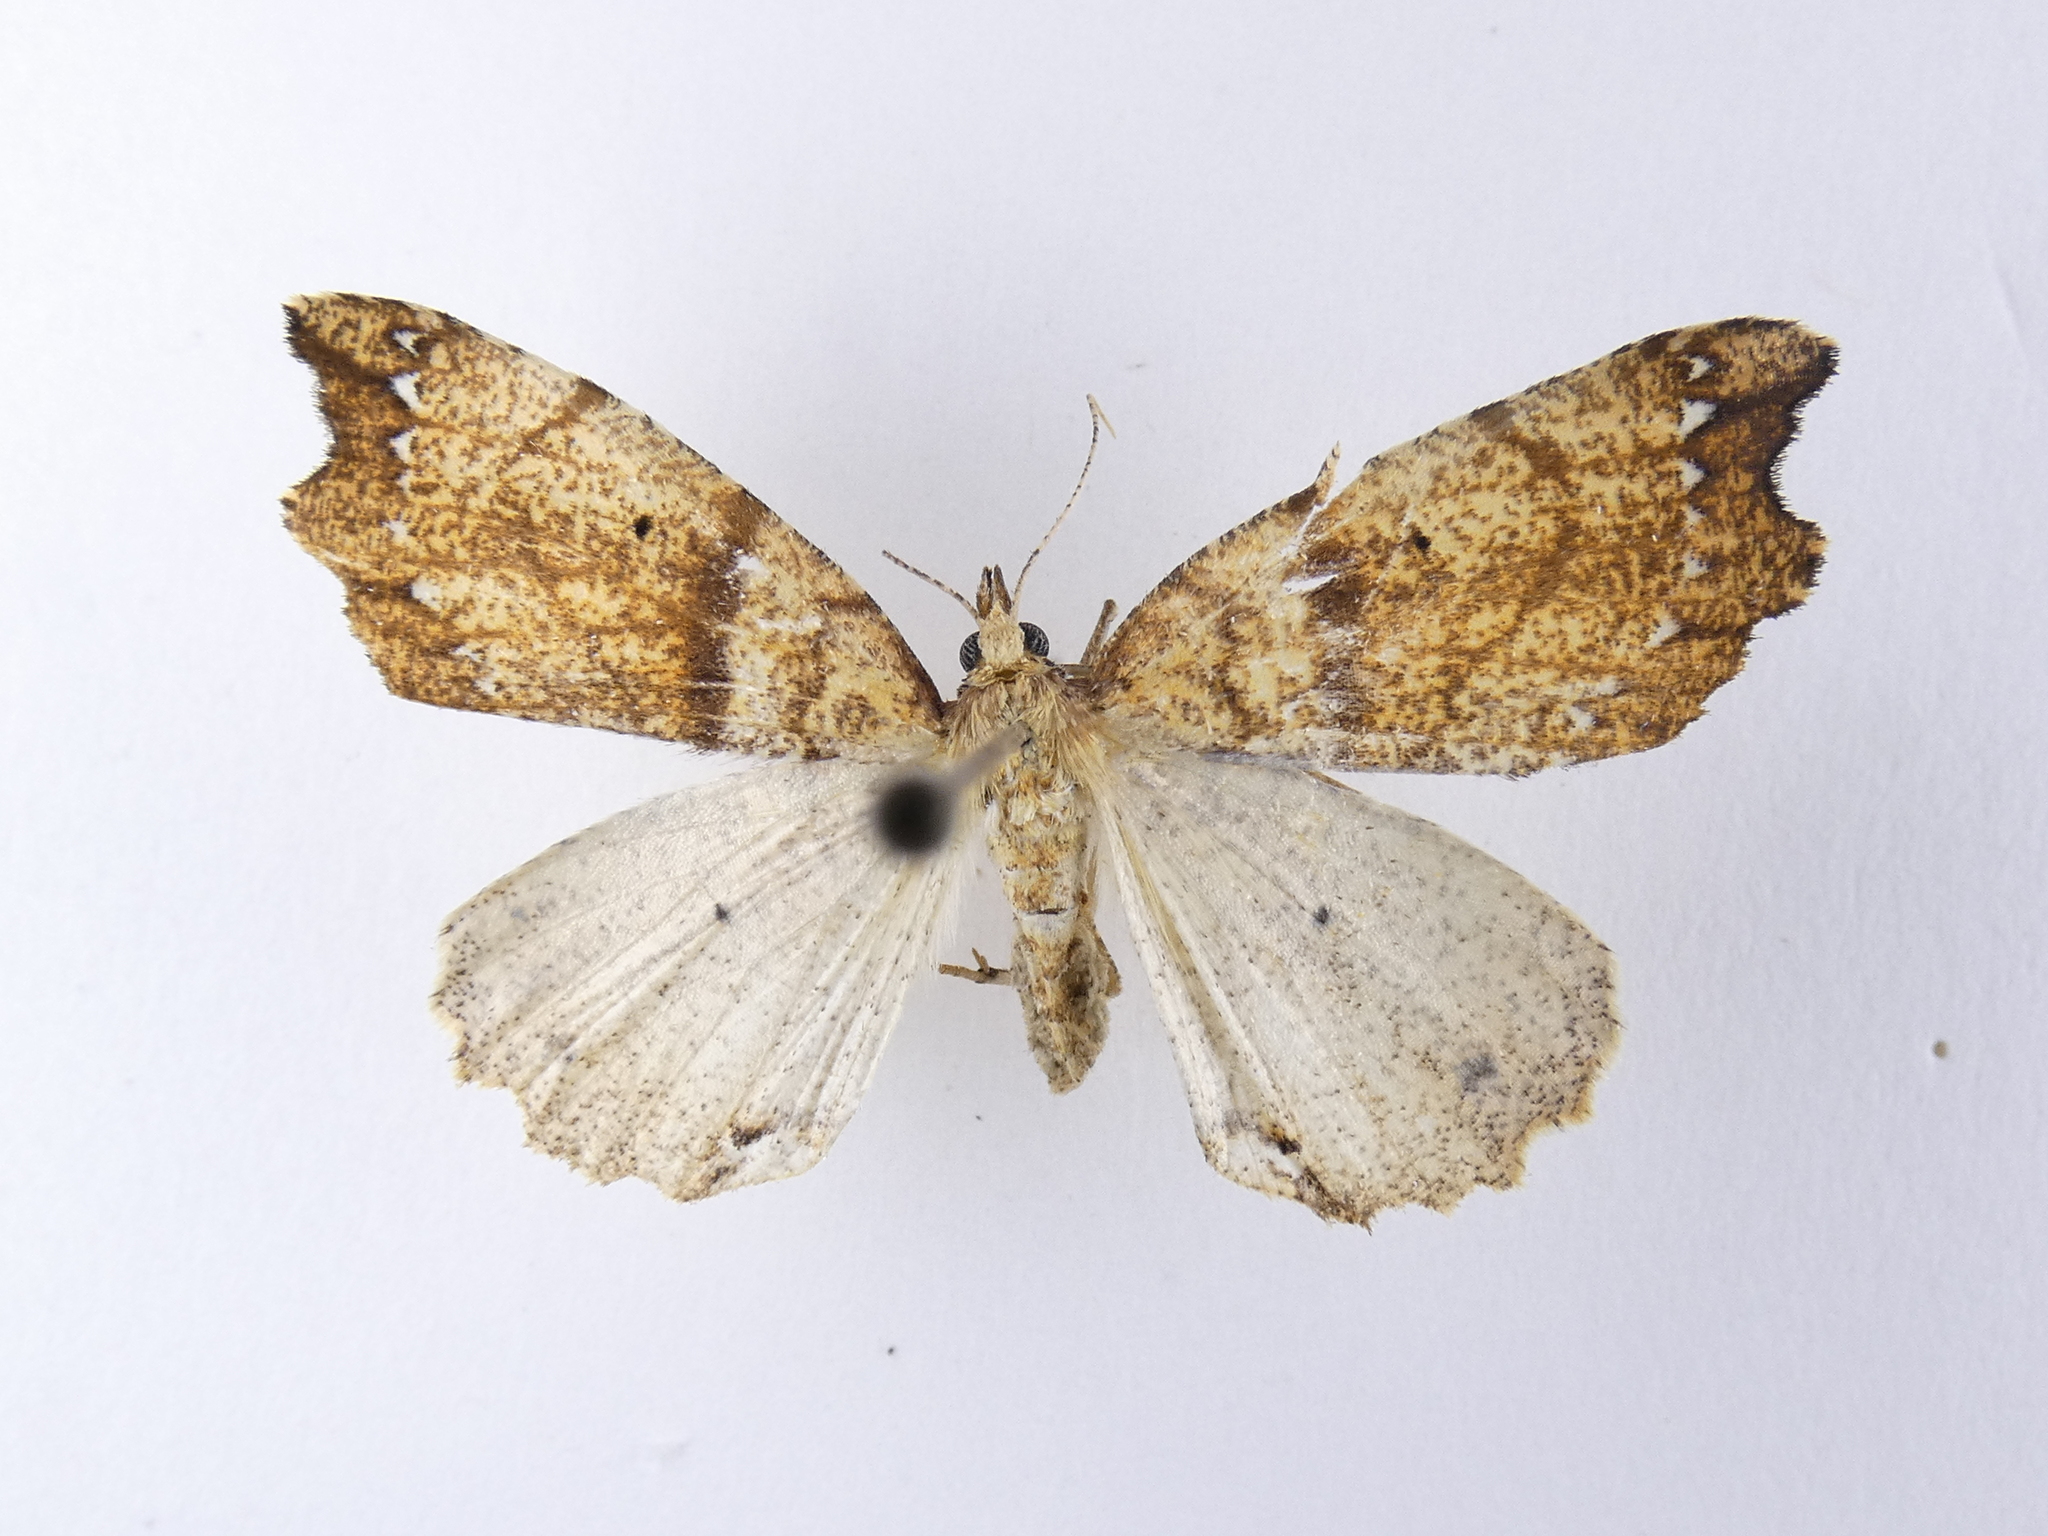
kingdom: Animalia
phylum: Arthropoda
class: Insecta
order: Lepidoptera
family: Geometridae
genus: Chalastra
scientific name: Chalastra pellurgata
